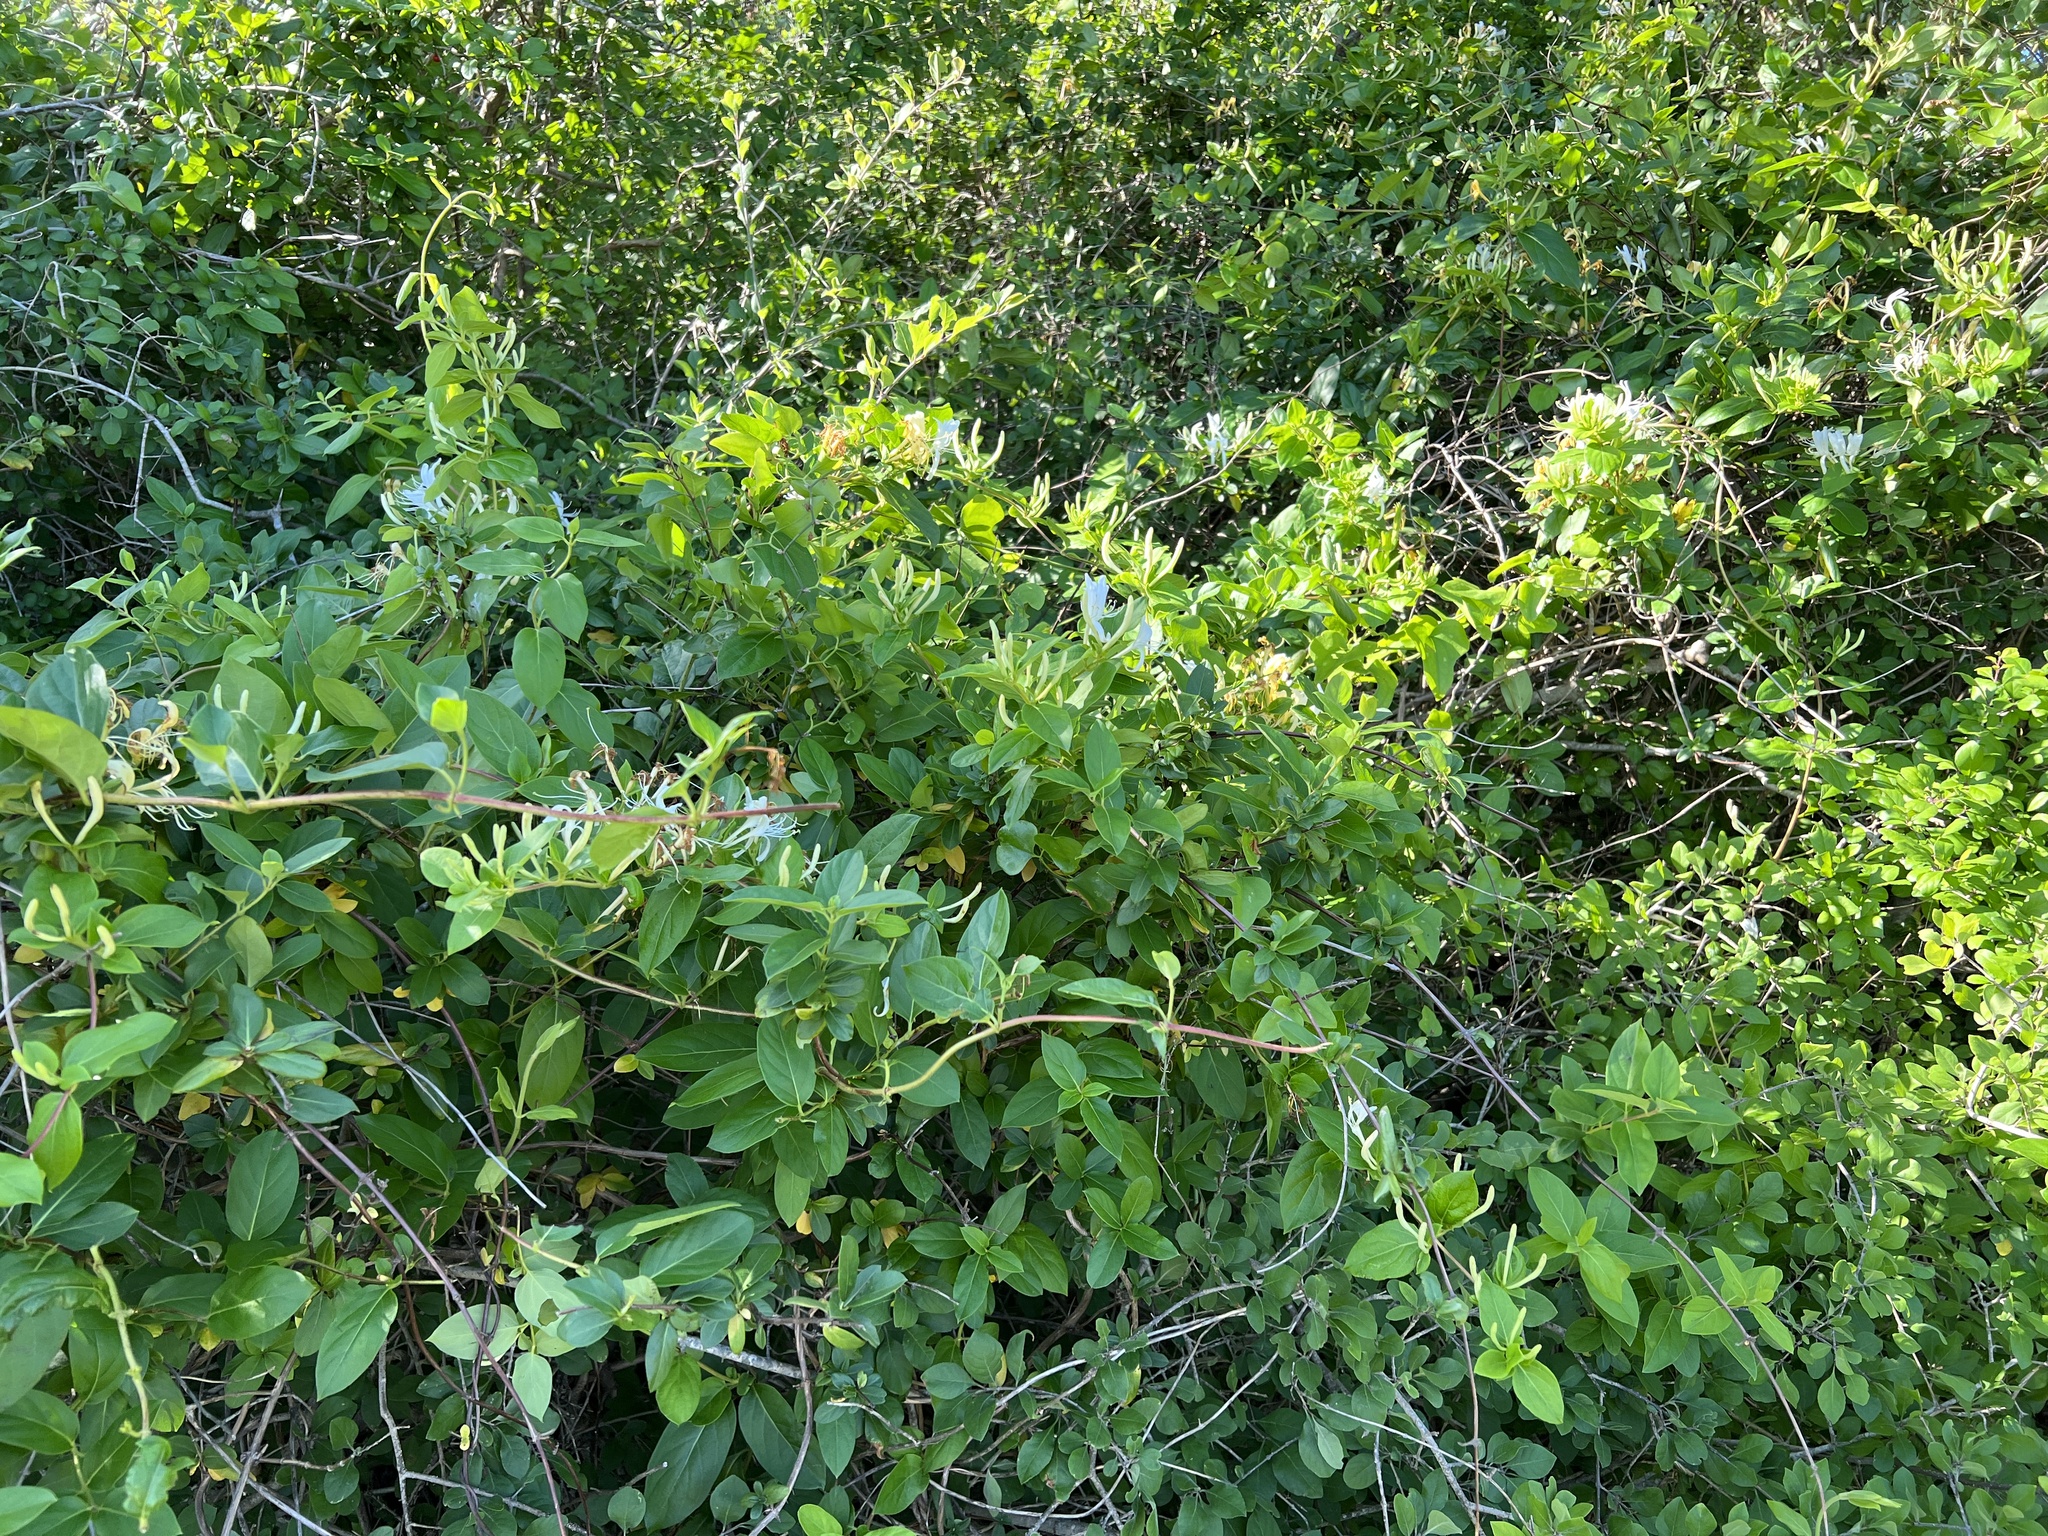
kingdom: Plantae
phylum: Tracheophyta
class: Magnoliopsida
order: Dipsacales
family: Caprifoliaceae
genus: Lonicera
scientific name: Lonicera japonica
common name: Japanese honeysuckle
